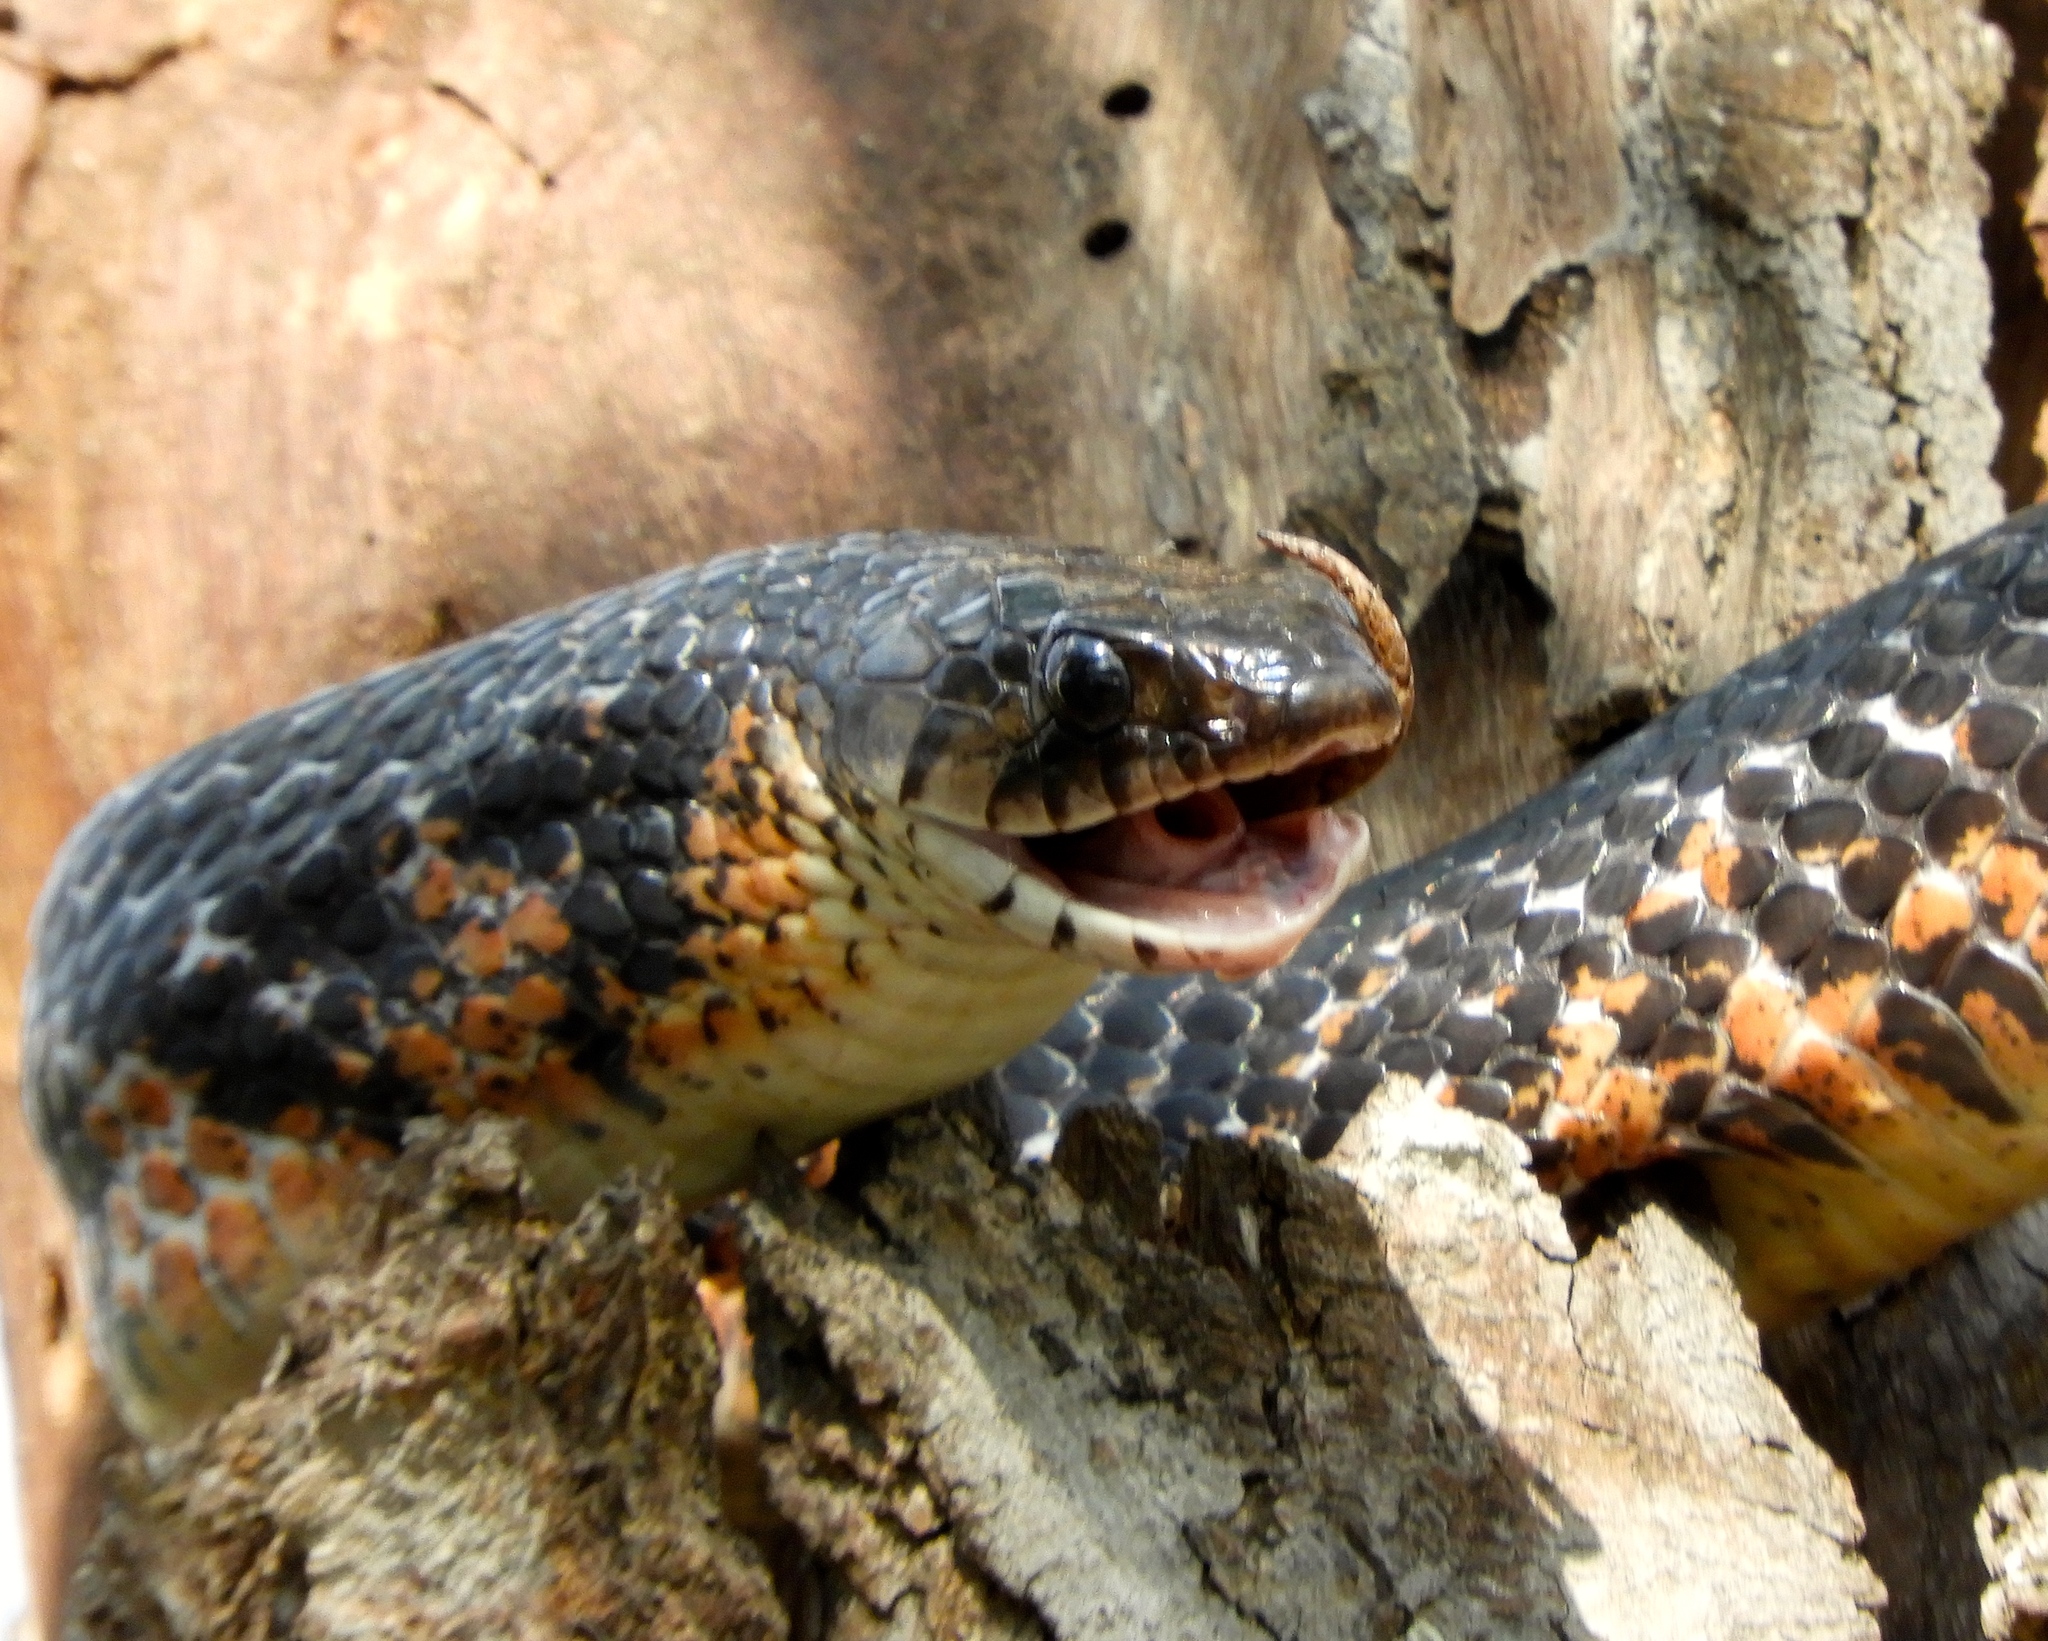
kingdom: Animalia
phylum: Chordata
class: Squamata
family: Colubridae
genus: Drymarchon
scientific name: Drymarchon melanurus
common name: Central american indigo snake
